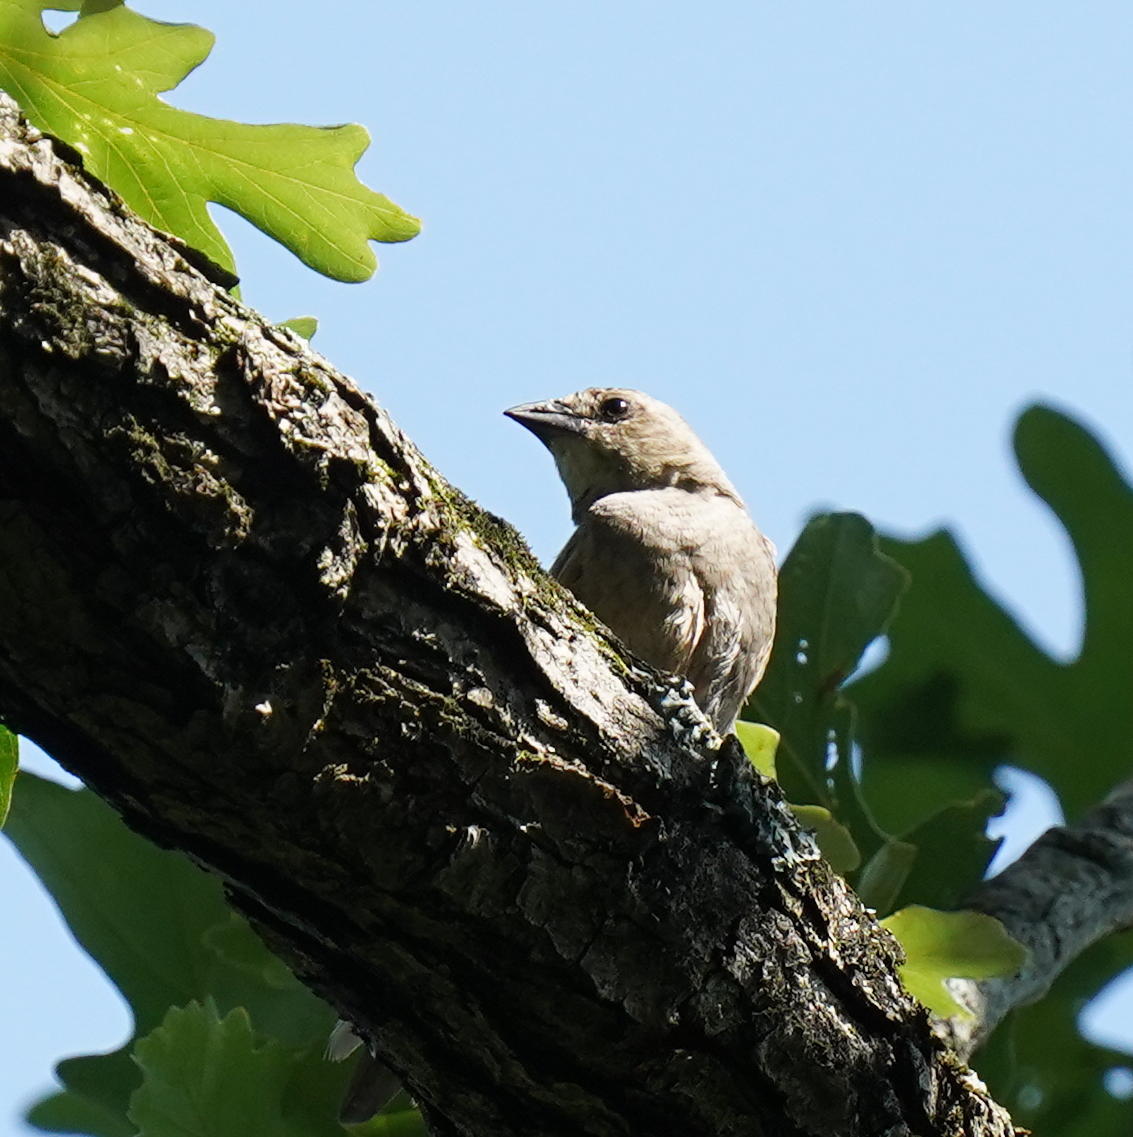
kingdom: Animalia
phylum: Chordata
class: Aves
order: Passeriformes
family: Icteridae
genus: Molothrus
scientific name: Molothrus ater
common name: Brown-headed cowbird
